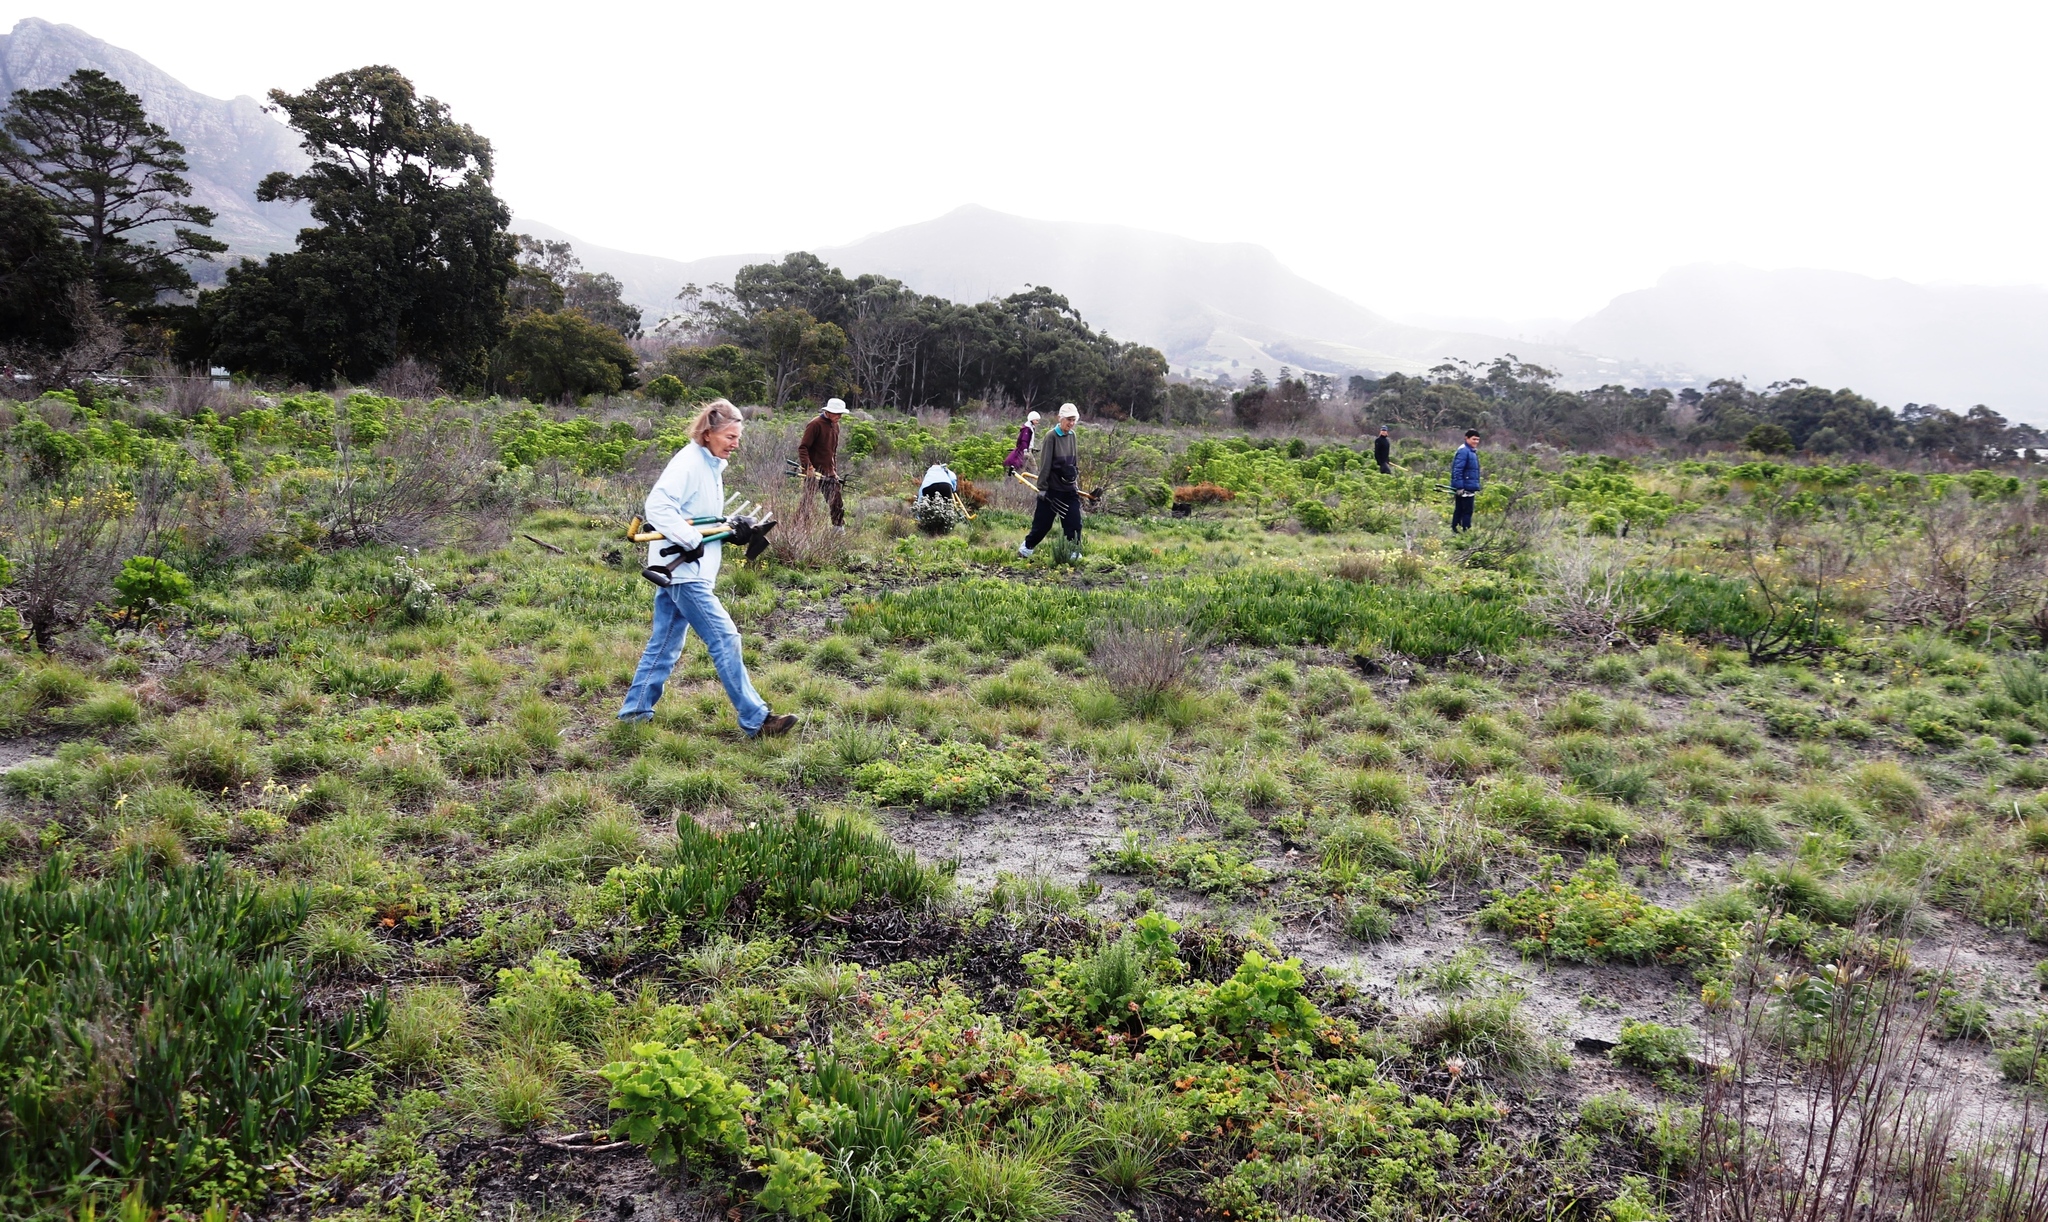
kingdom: Plantae
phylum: Tracheophyta
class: Magnoliopsida
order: Caryophyllales
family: Aizoaceae
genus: Carpobrotus
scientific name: Carpobrotus edulis
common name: Hottentot-fig
